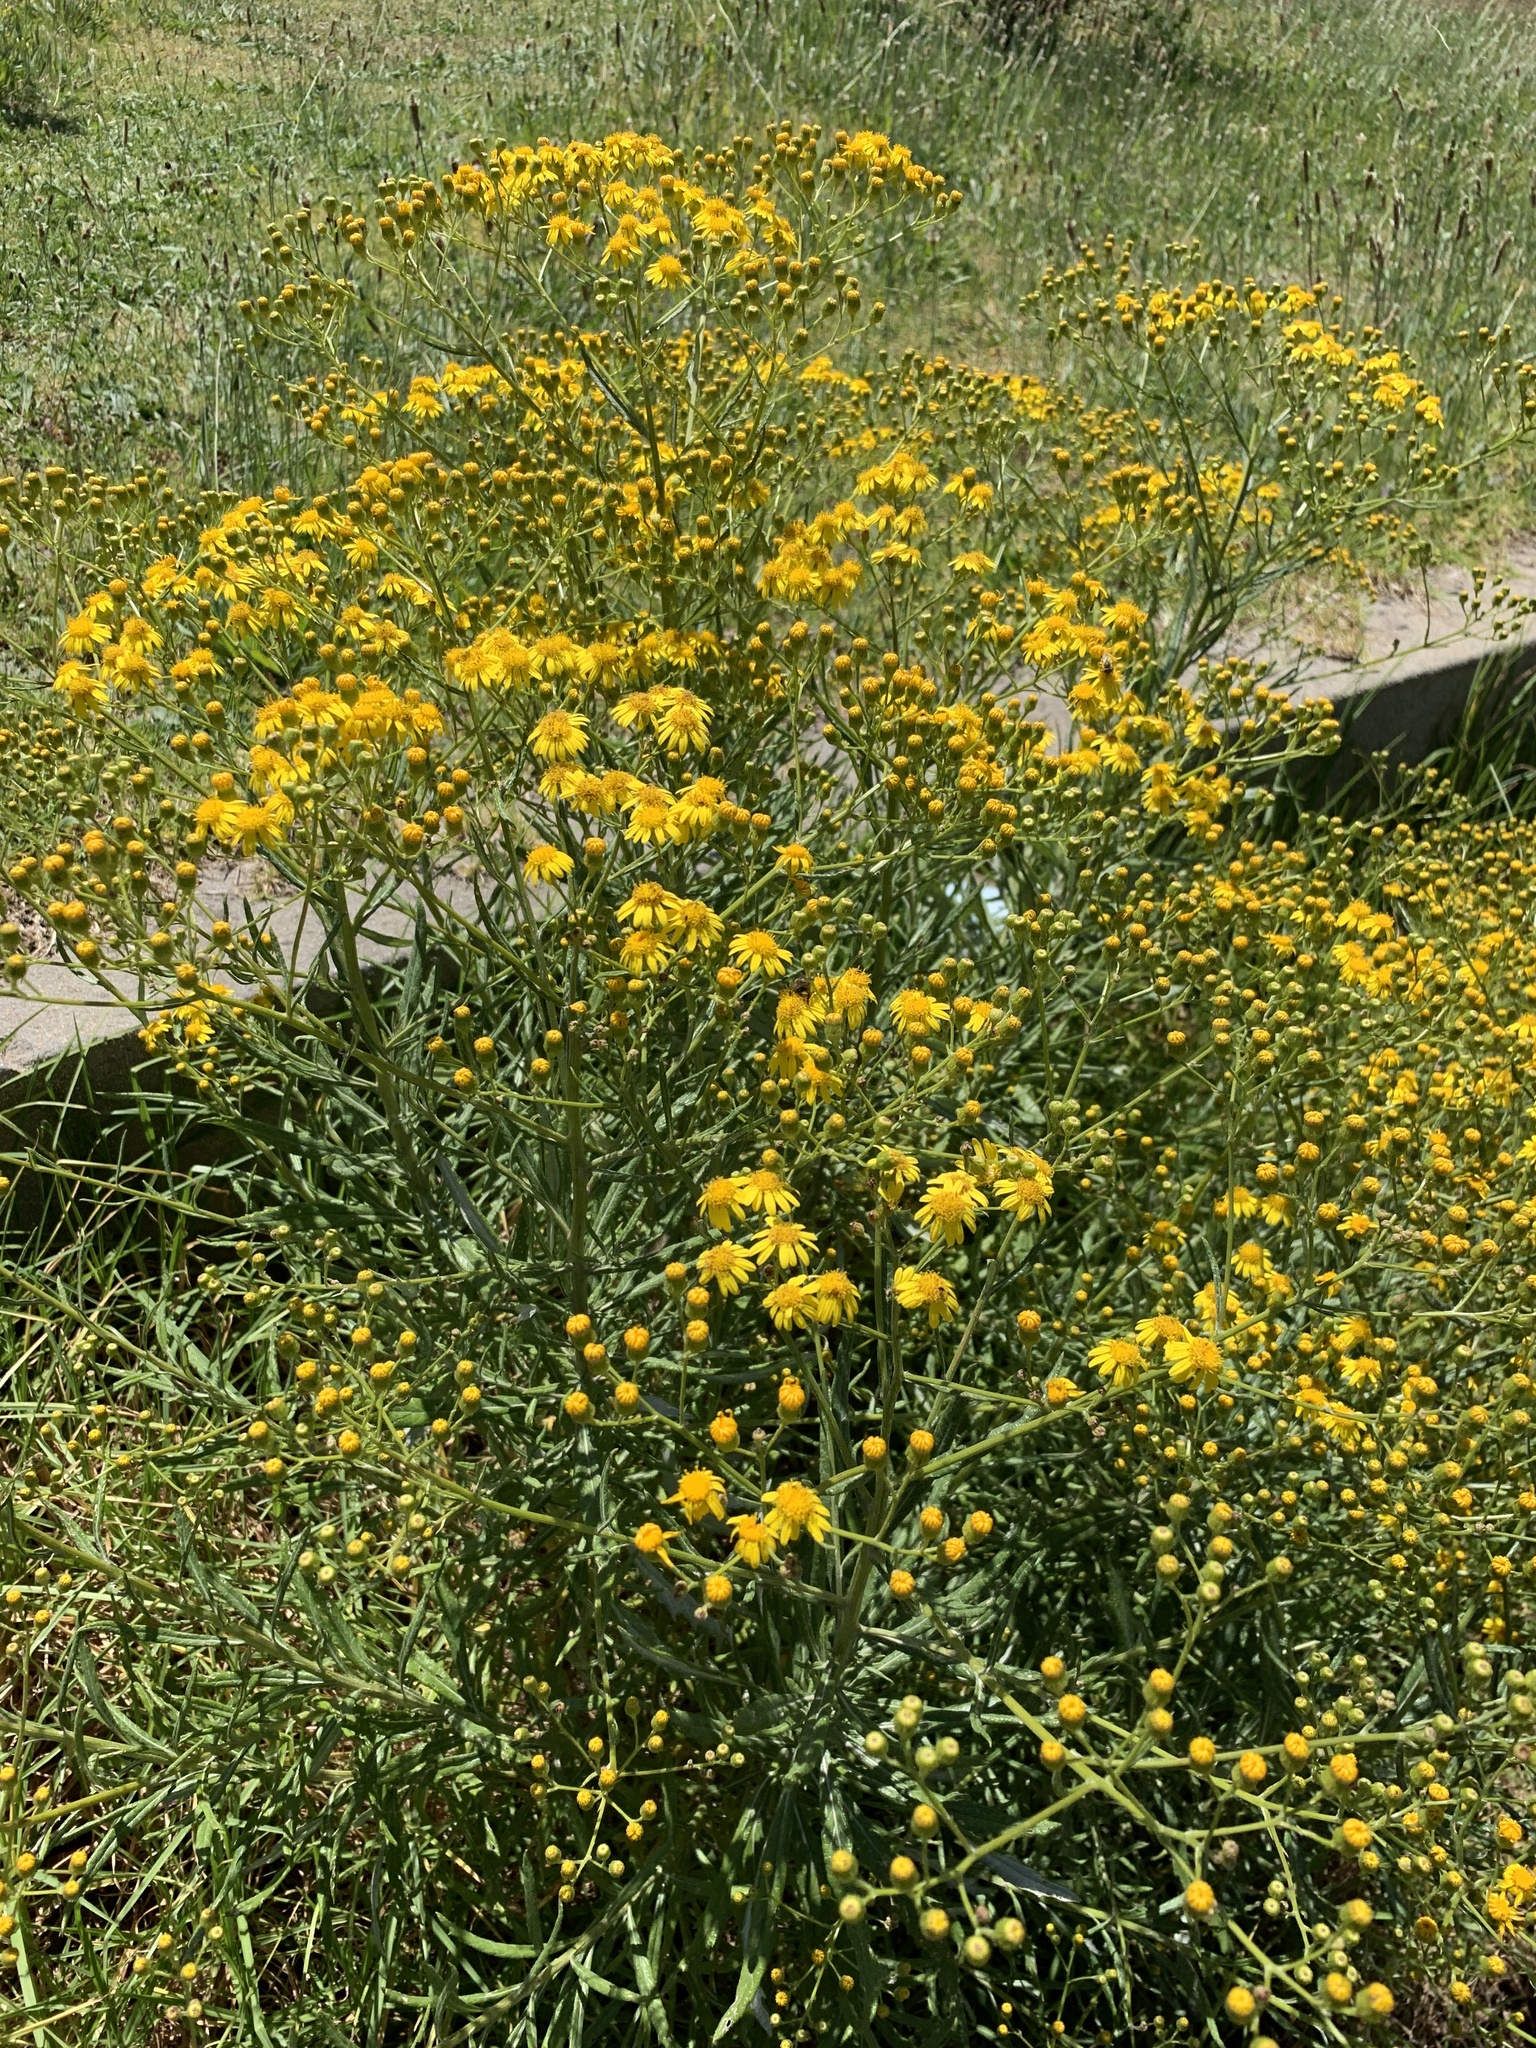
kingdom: Plantae
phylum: Tracheophyta
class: Magnoliopsida
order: Asterales
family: Asteraceae
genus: Senecio
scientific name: Senecio pterophorus
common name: Shoddy ragwort
